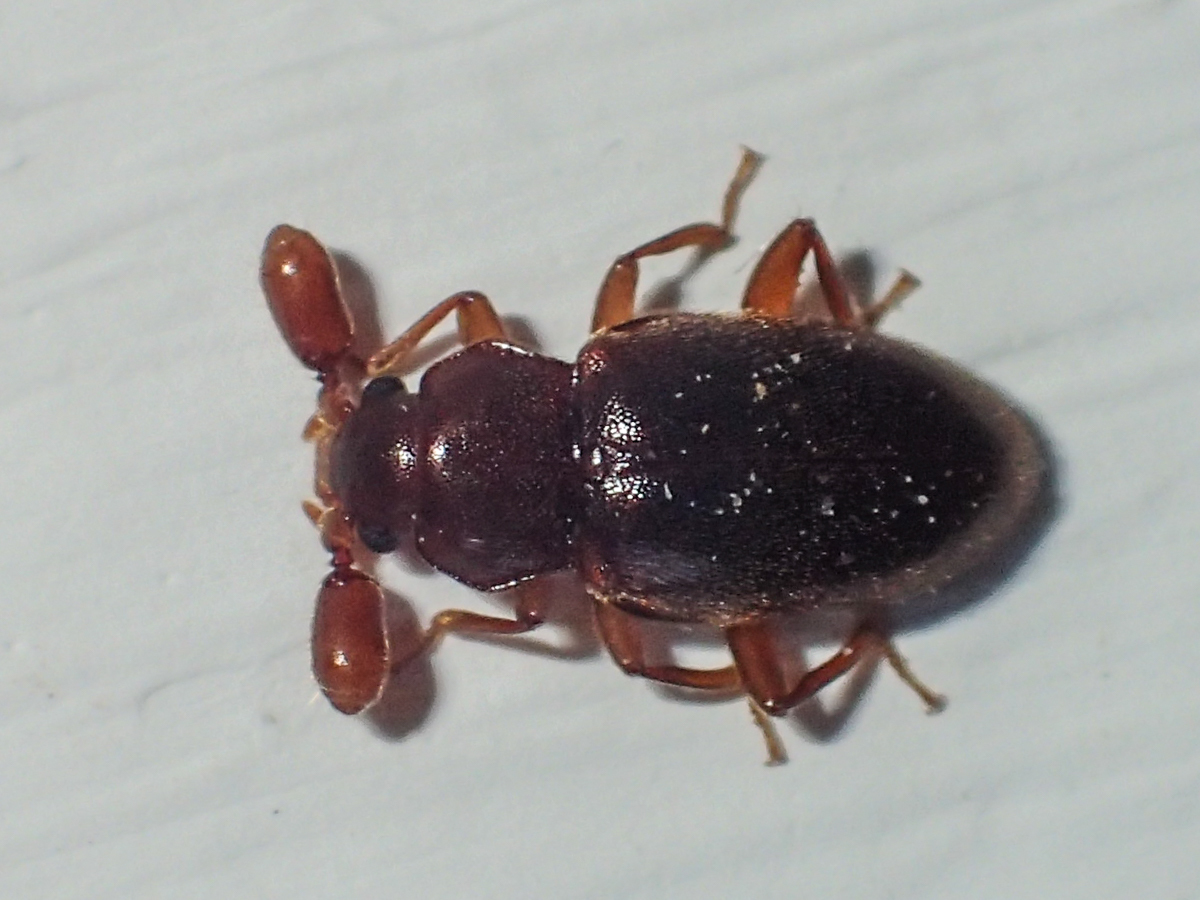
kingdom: Animalia
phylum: Arthropoda
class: Insecta
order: Coleoptera
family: Endomychidae
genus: Trochoideus
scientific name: Trochoideus desjardinsi
